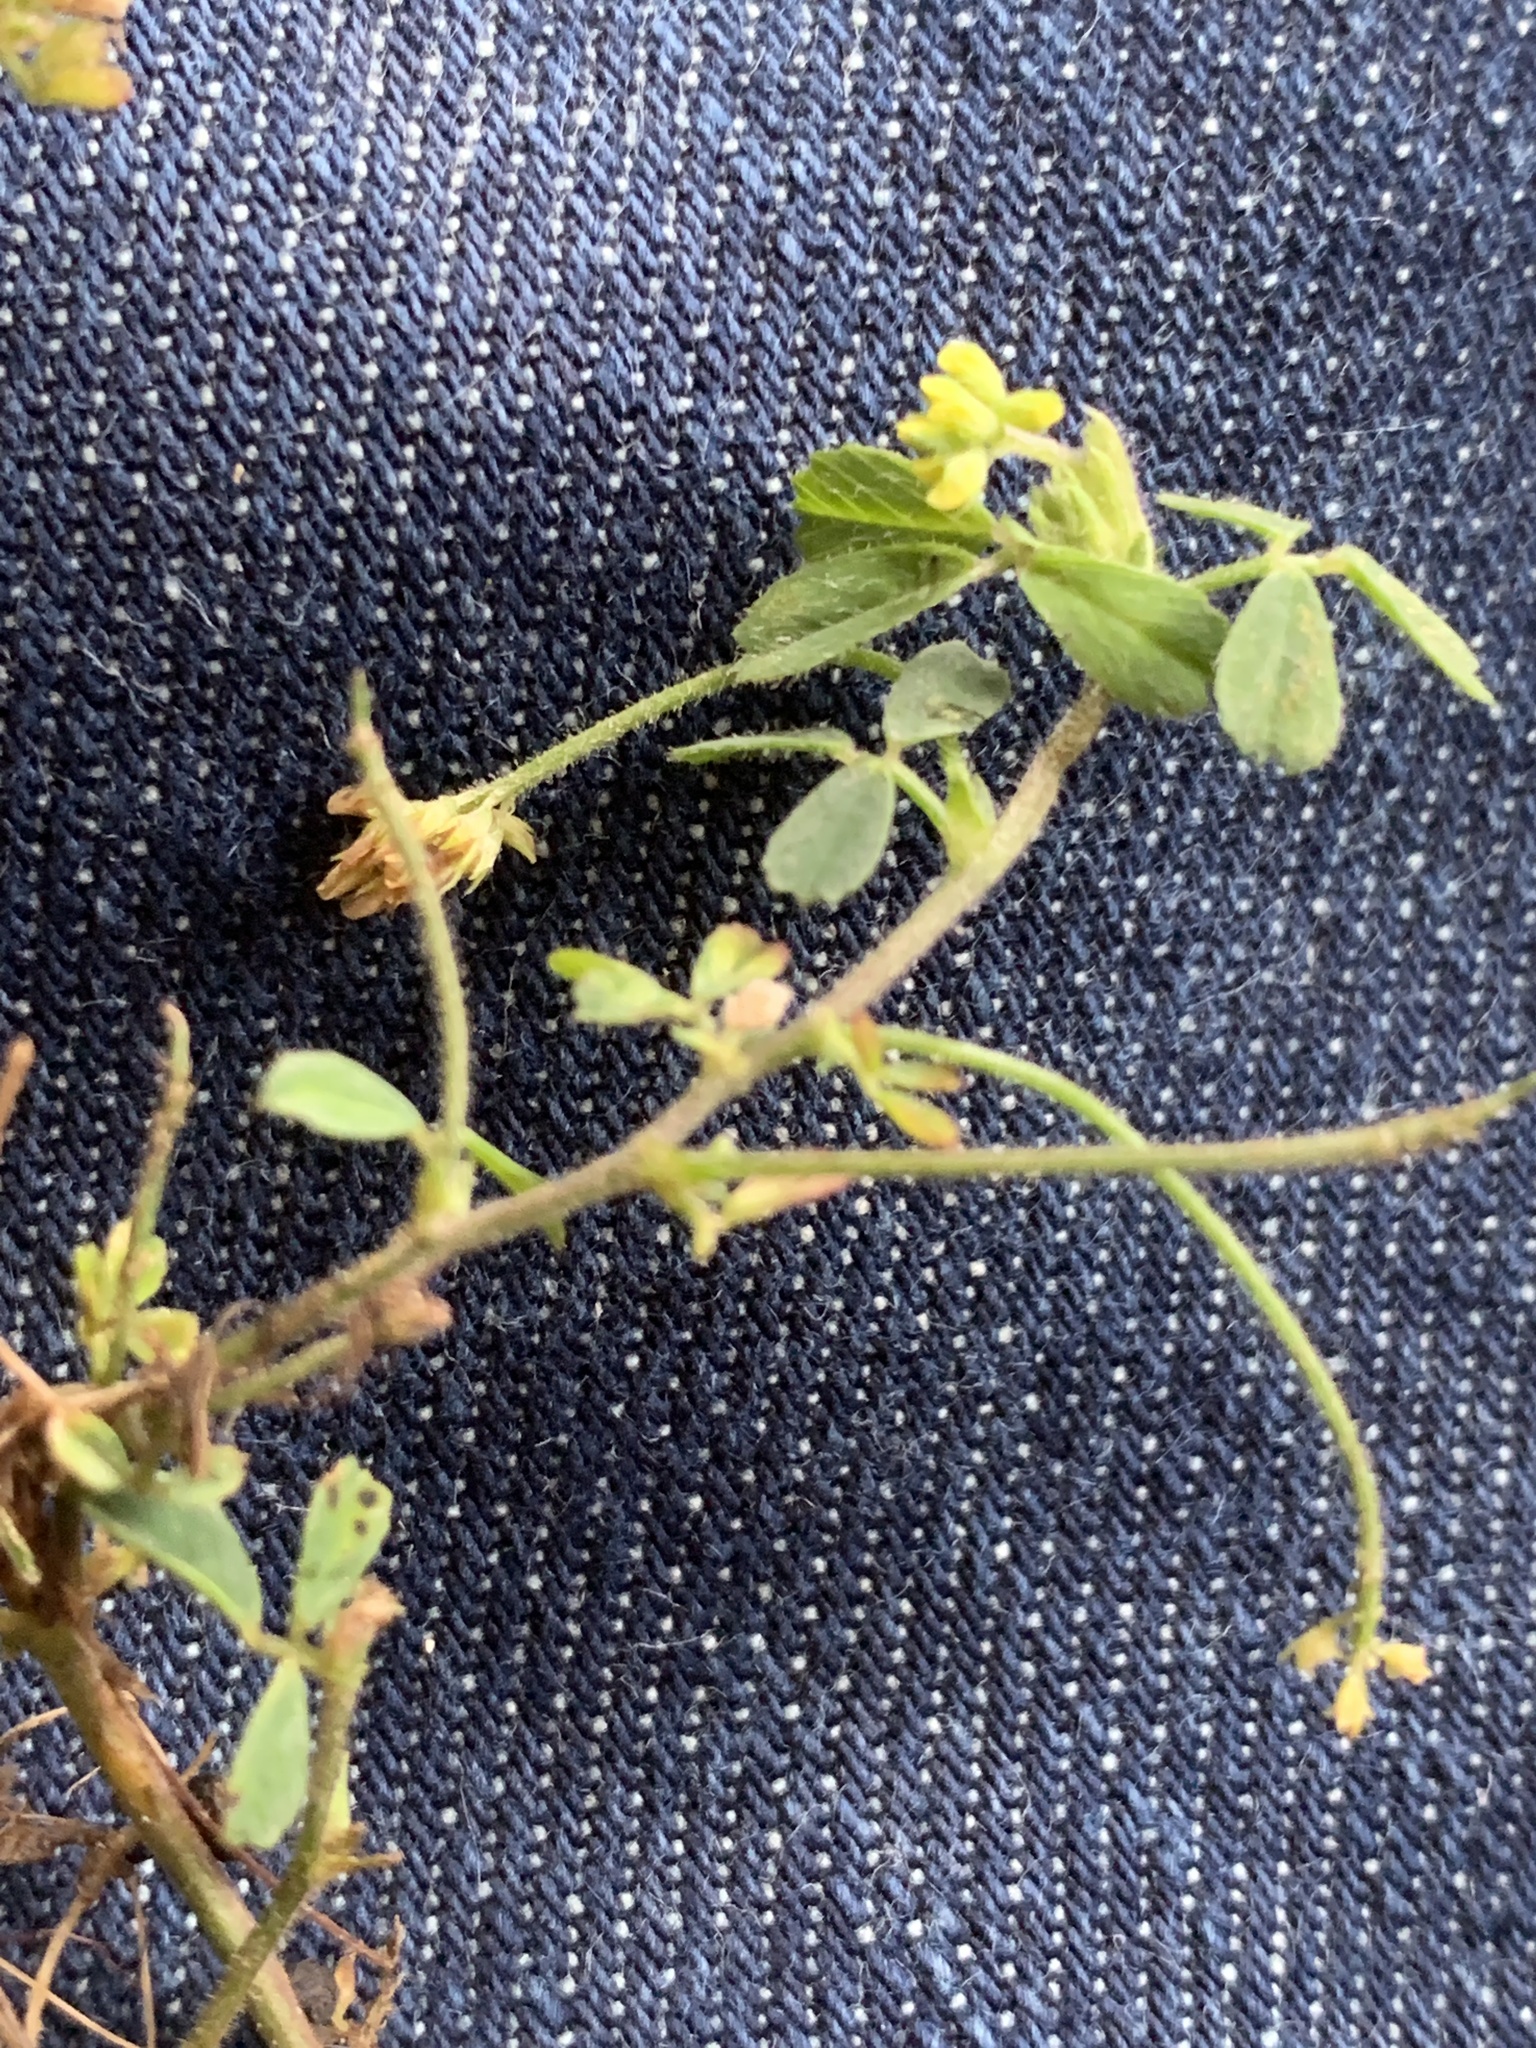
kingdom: Plantae
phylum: Tracheophyta
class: Magnoliopsida
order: Fabales
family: Fabaceae
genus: Medicago
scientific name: Medicago lupulina
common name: Black medick
